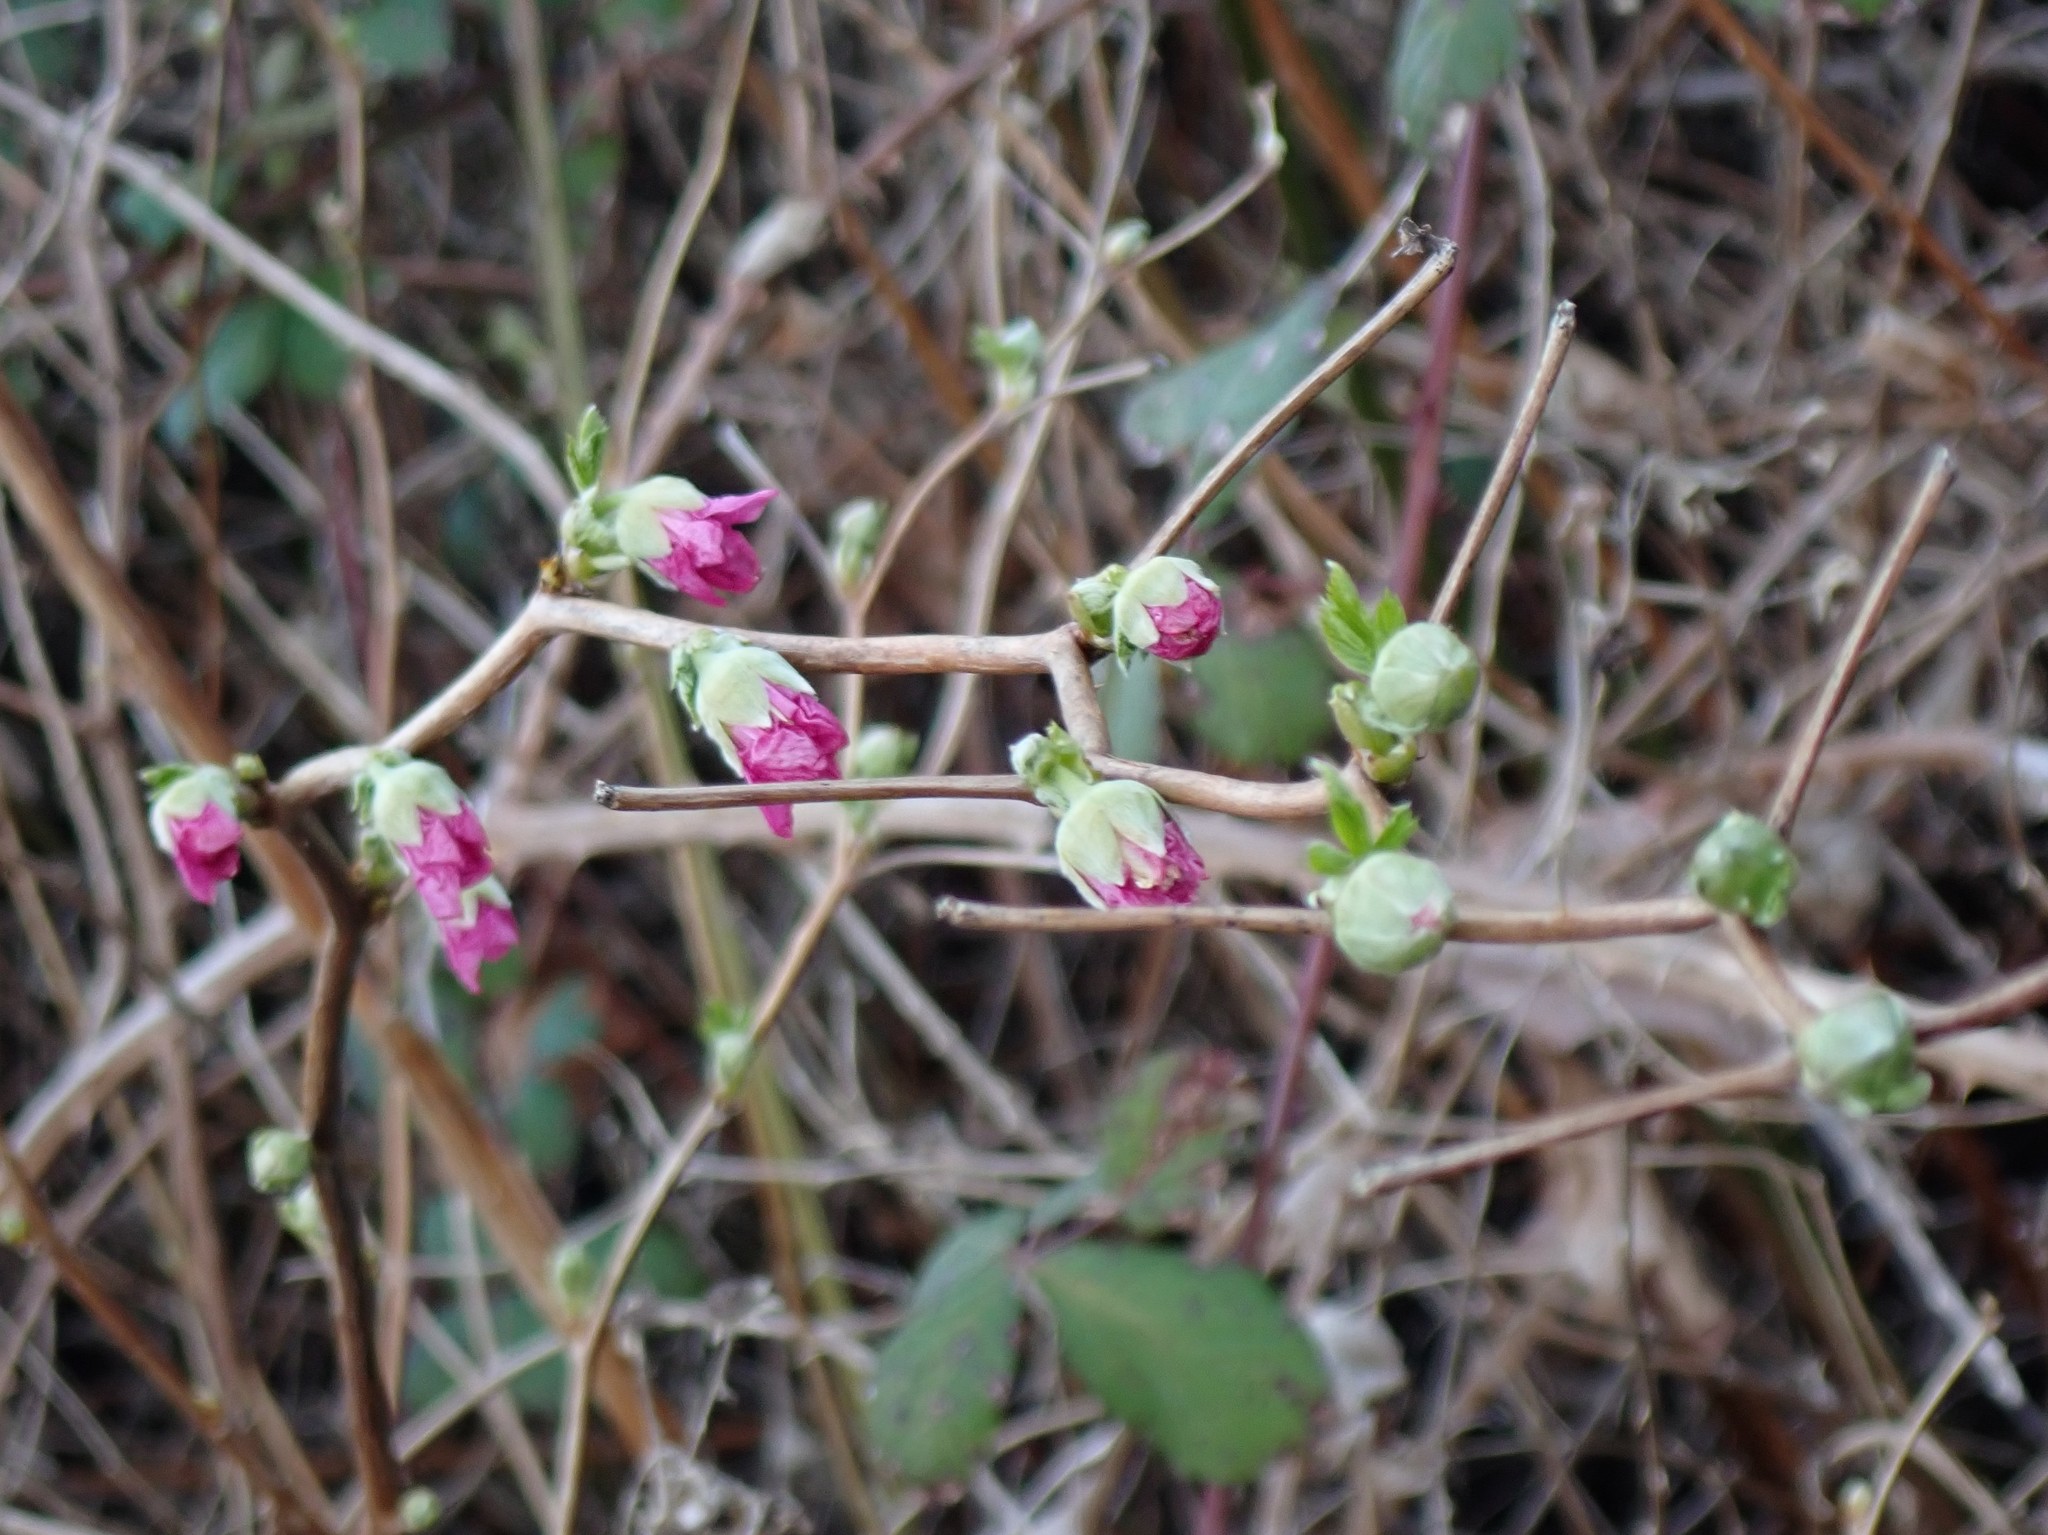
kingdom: Plantae
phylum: Tracheophyta
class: Magnoliopsida
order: Rosales
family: Rosaceae
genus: Rubus
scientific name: Rubus spectabilis
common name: Salmonberry
